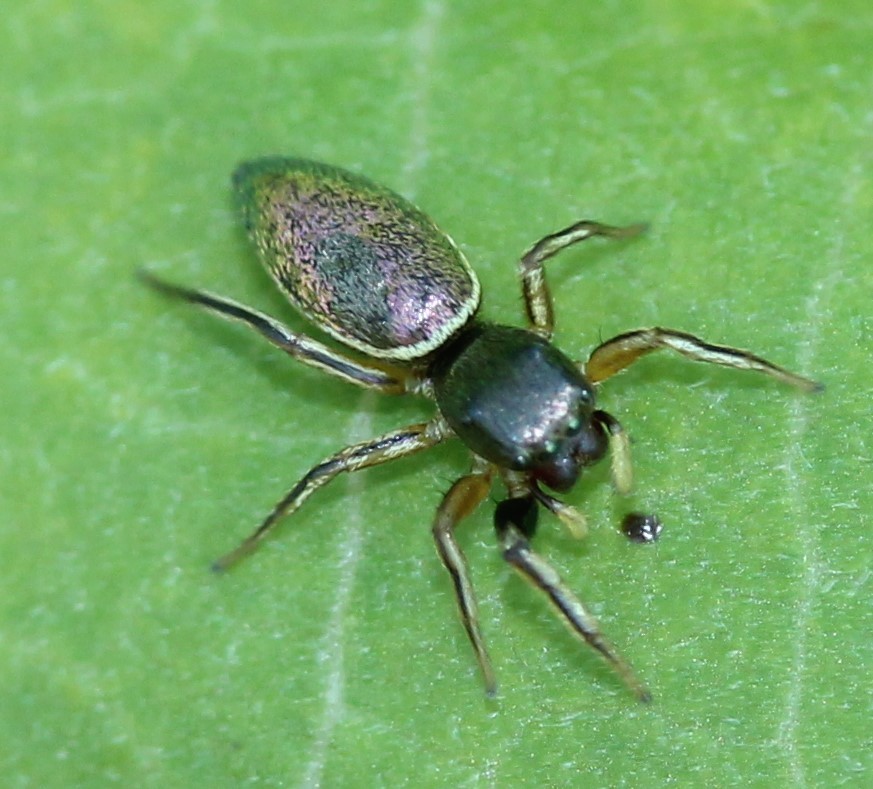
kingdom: Animalia
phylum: Arthropoda
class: Arachnida
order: Araneae
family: Salticidae
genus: Tutelina
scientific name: Tutelina elegans
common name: Thin-spined jumping spider
